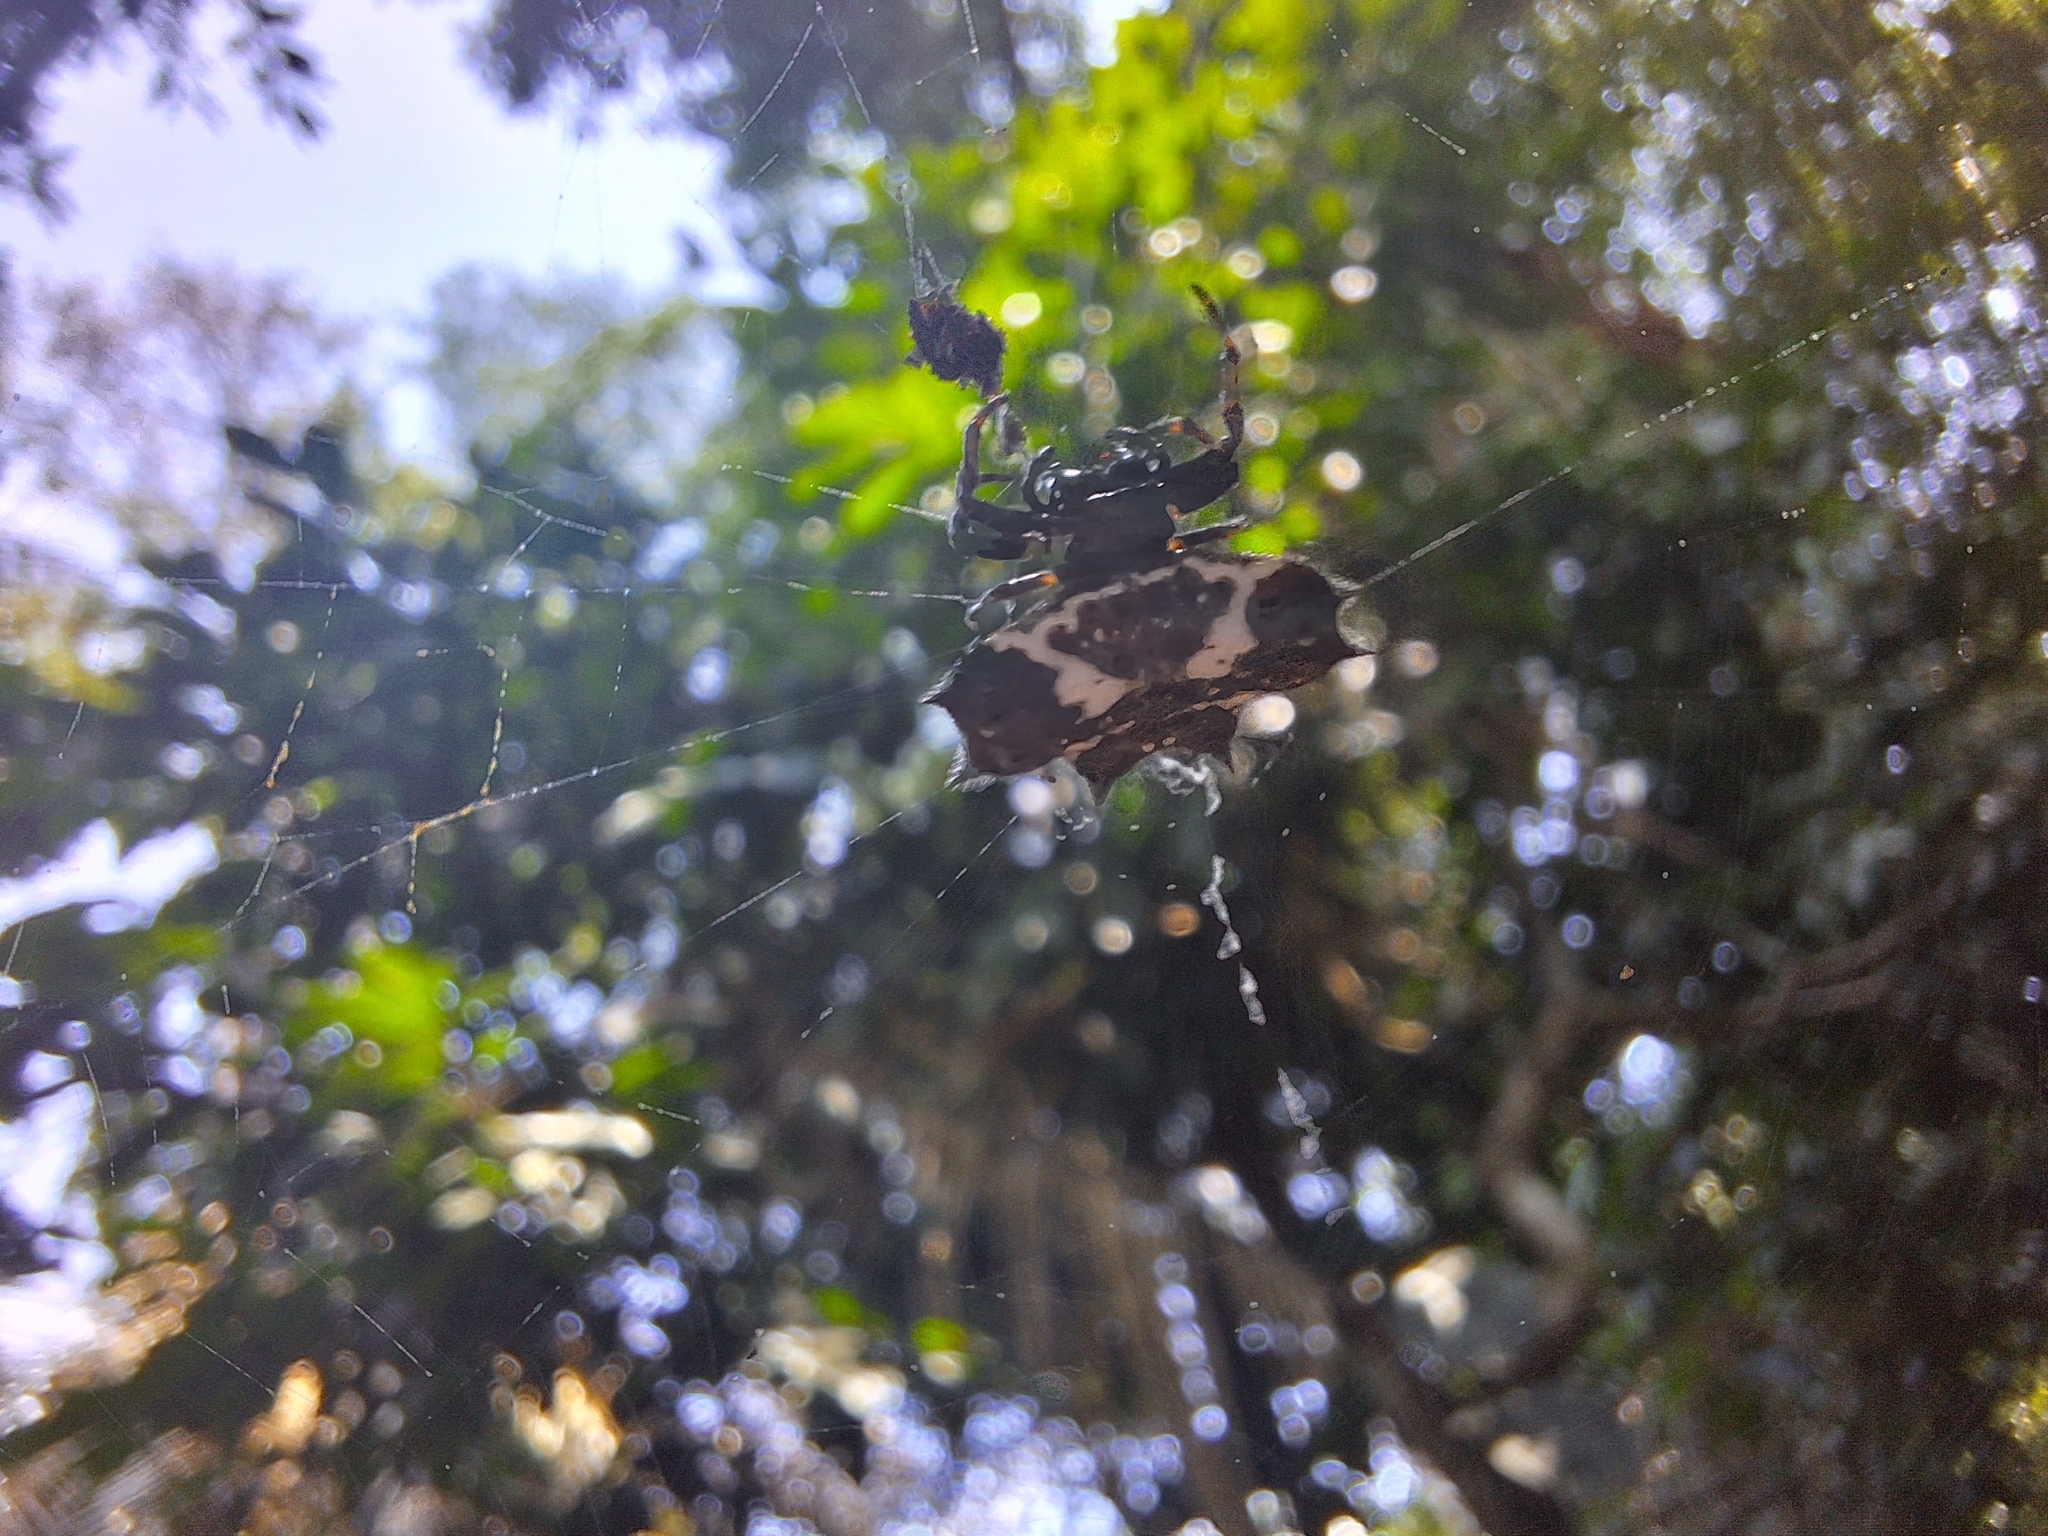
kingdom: Animalia
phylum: Arthropoda
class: Arachnida
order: Araneae
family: Araneidae
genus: Gasteracantha
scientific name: Gasteracantha cancriformis
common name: Orb weavers
